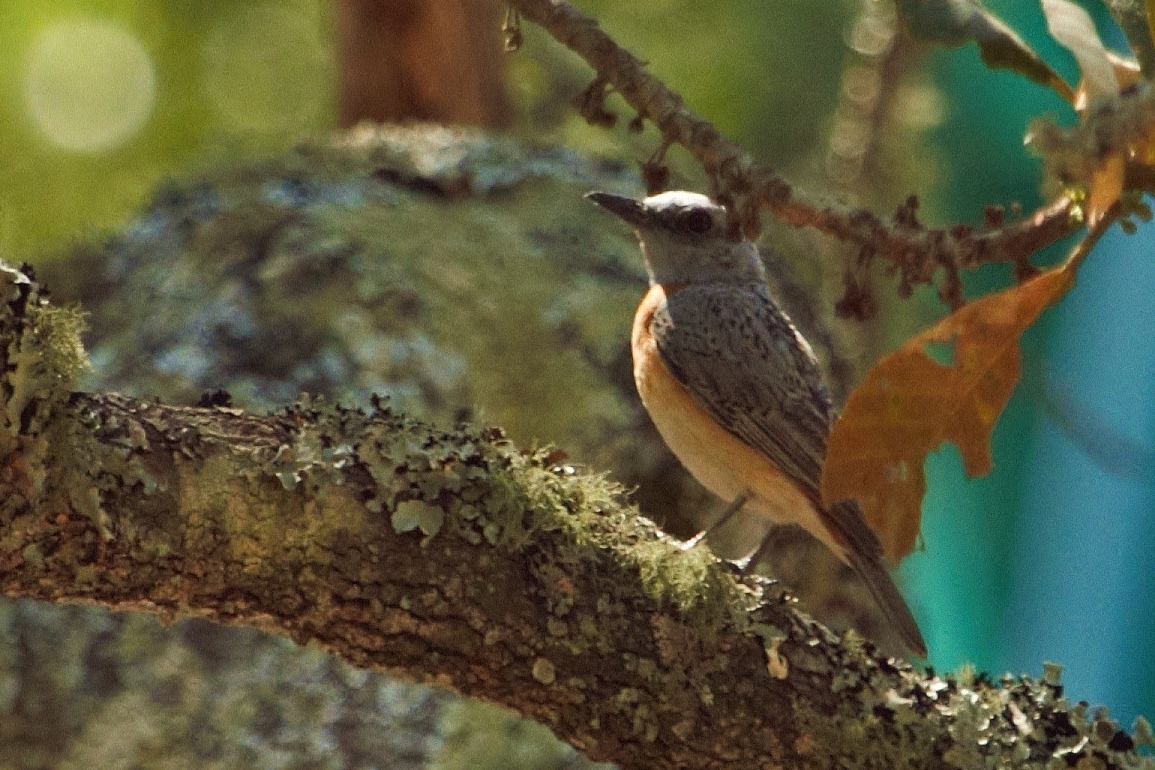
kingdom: Animalia
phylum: Chordata
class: Aves
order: Passeriformes
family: Muscicapidae
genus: Monticola
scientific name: Monticola angolensis
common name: Miombo rock thrush
